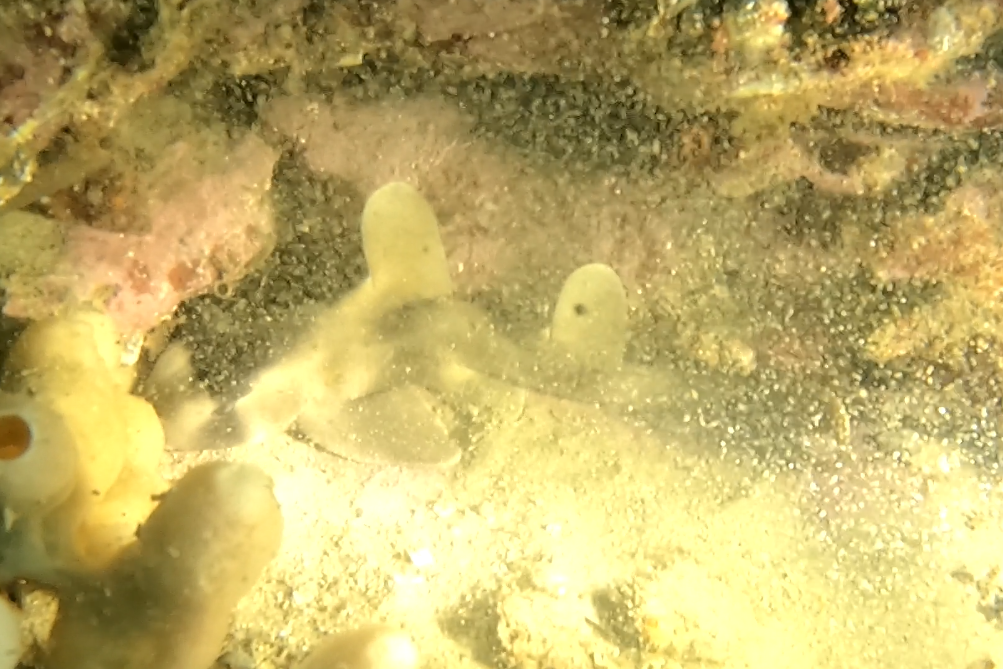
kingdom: Animalia
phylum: Chordata
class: Elasmobranchii
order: Heterodontiformes
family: Heterodontidae
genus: Heterodontus
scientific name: Heterodontus galeatus
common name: Crested bullhead shark
